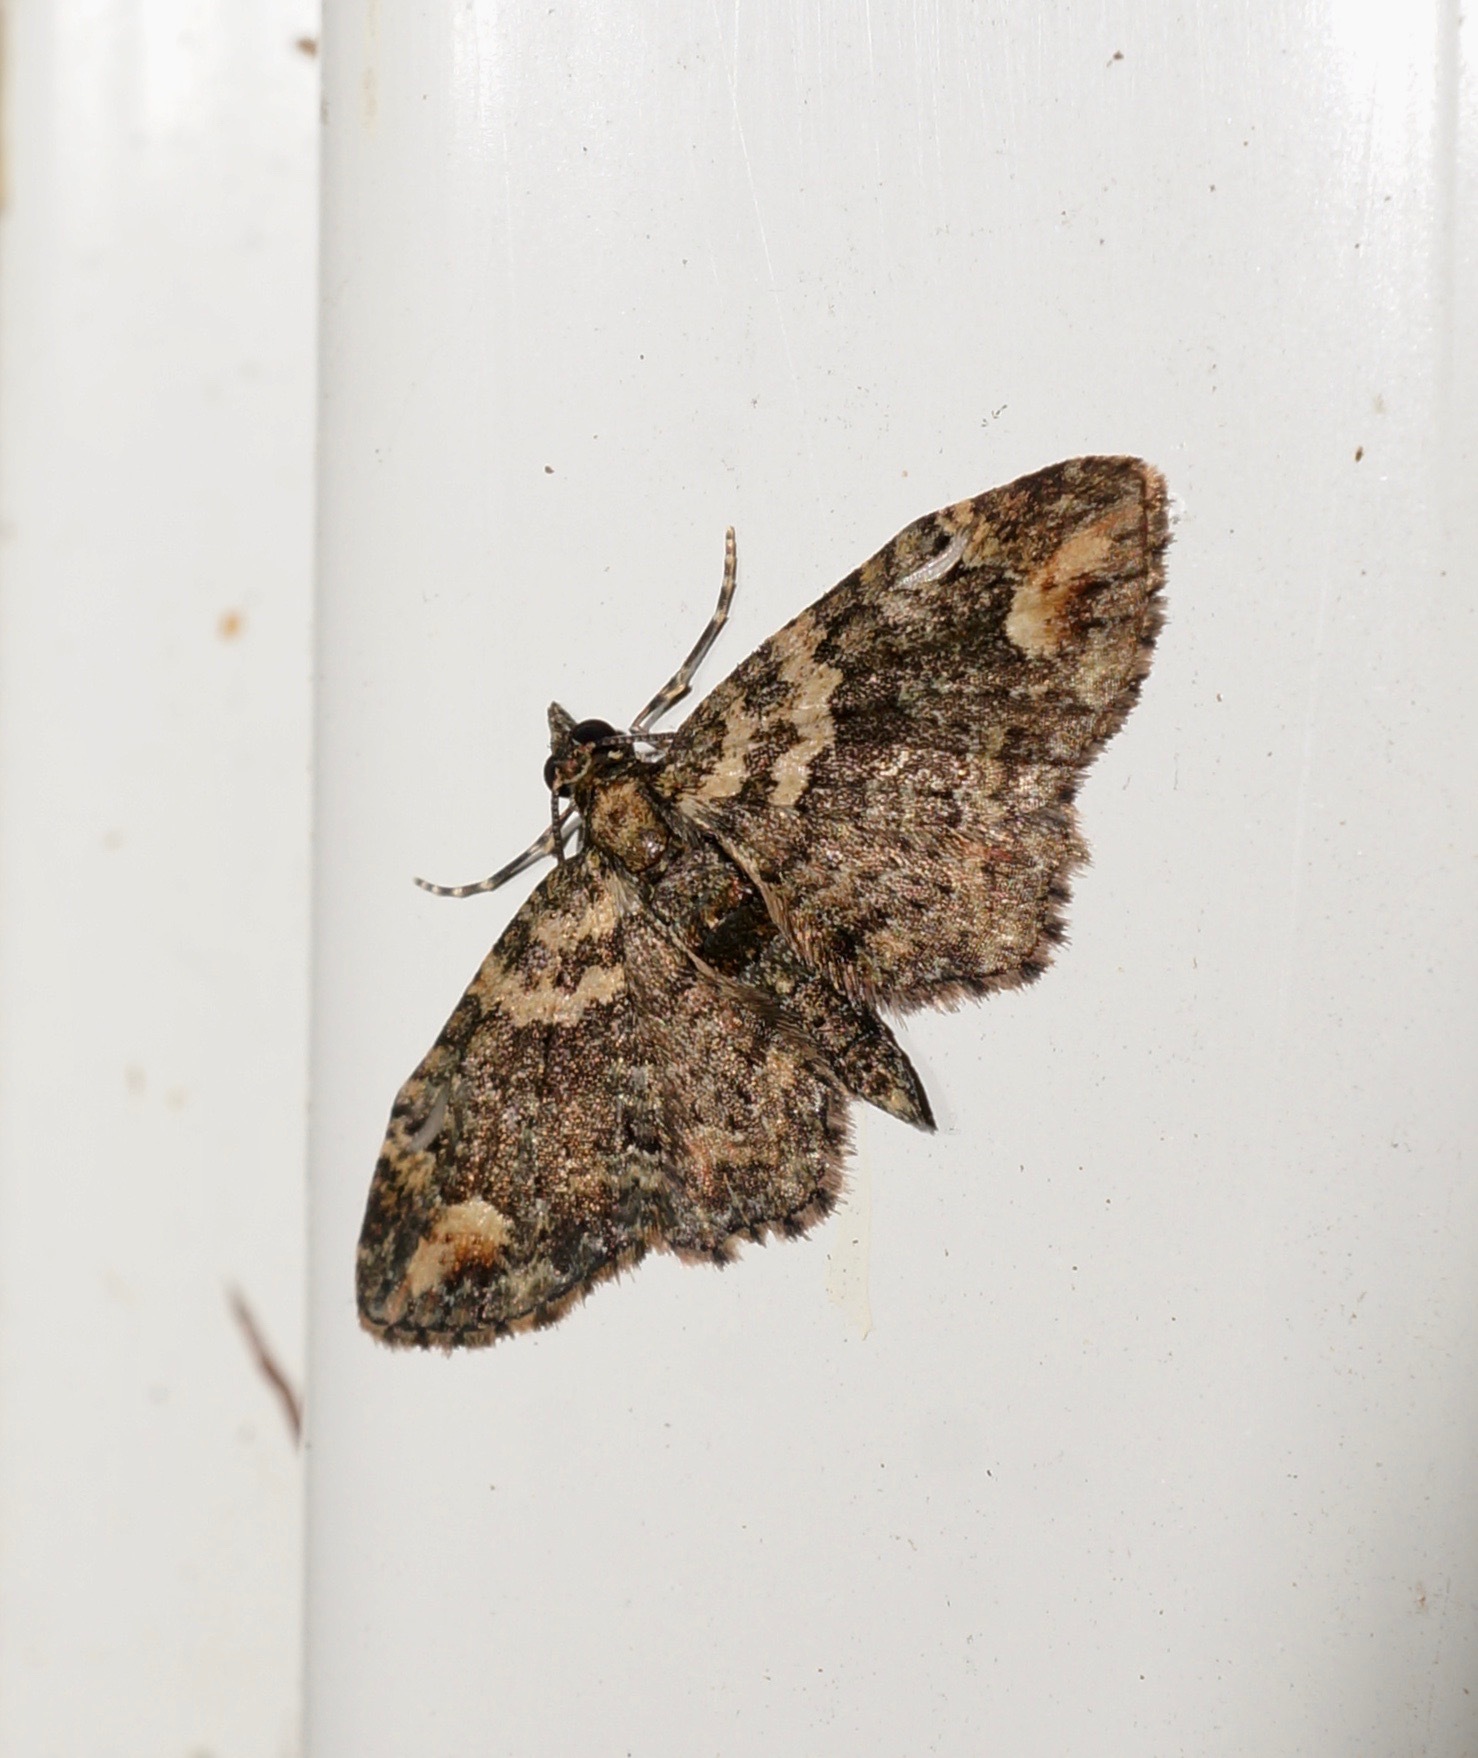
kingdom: Animalia
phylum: Arthropoda
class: Insecta
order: Lepidoptera
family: Geometridae
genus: Pasiphilodes
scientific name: Pasiphilodes testulata
